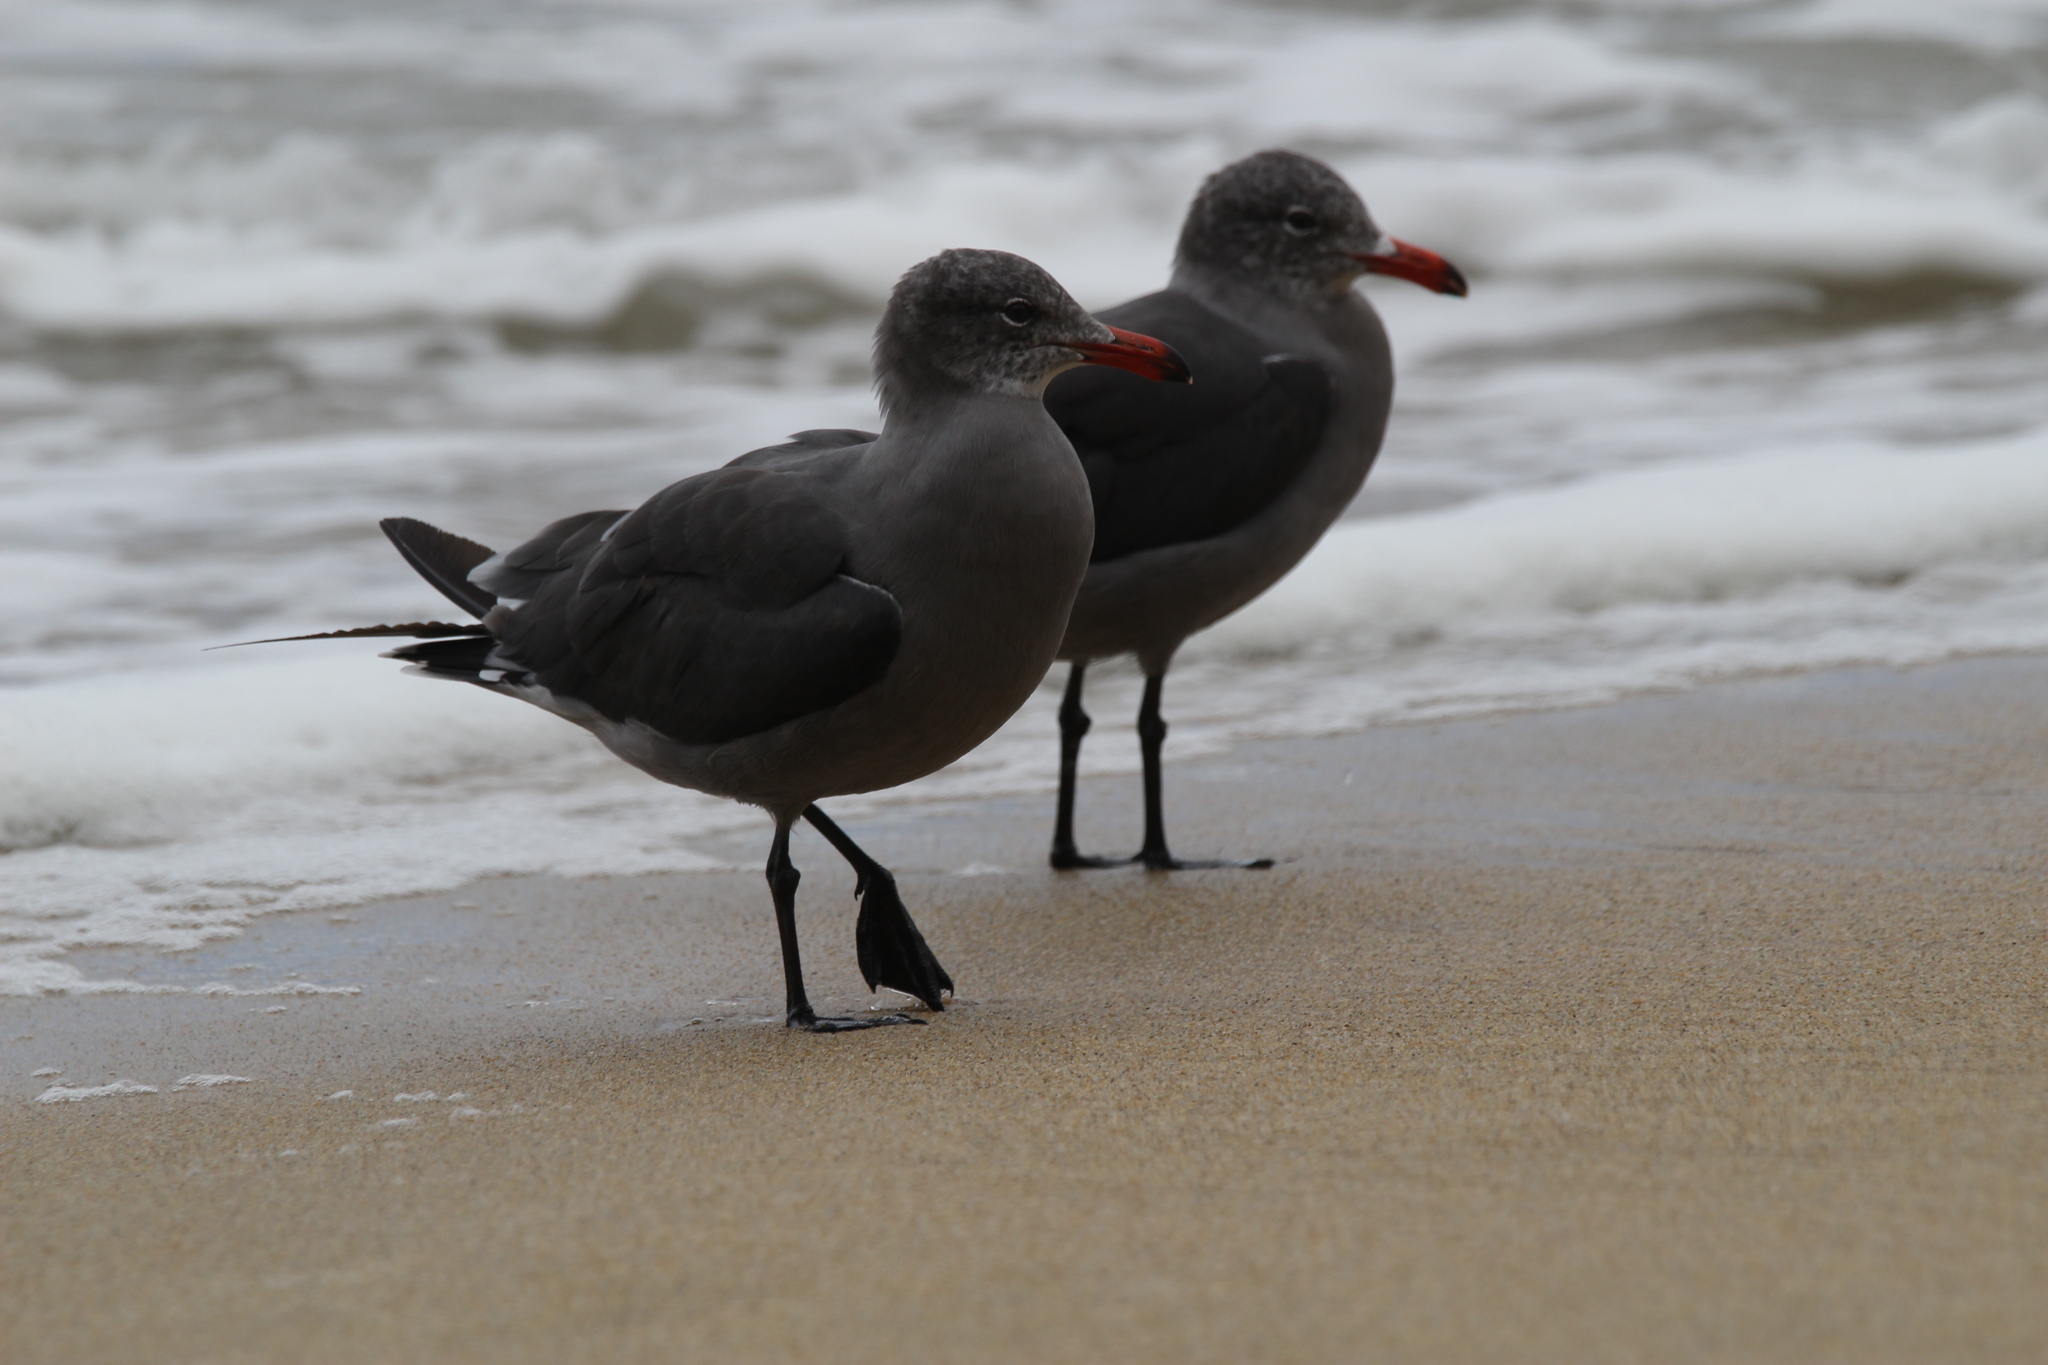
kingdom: Animalia
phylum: Chordata
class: Aves
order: Charadriiformes
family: Laridae
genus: Larus
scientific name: Larus heermanni
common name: Heermann's gull
